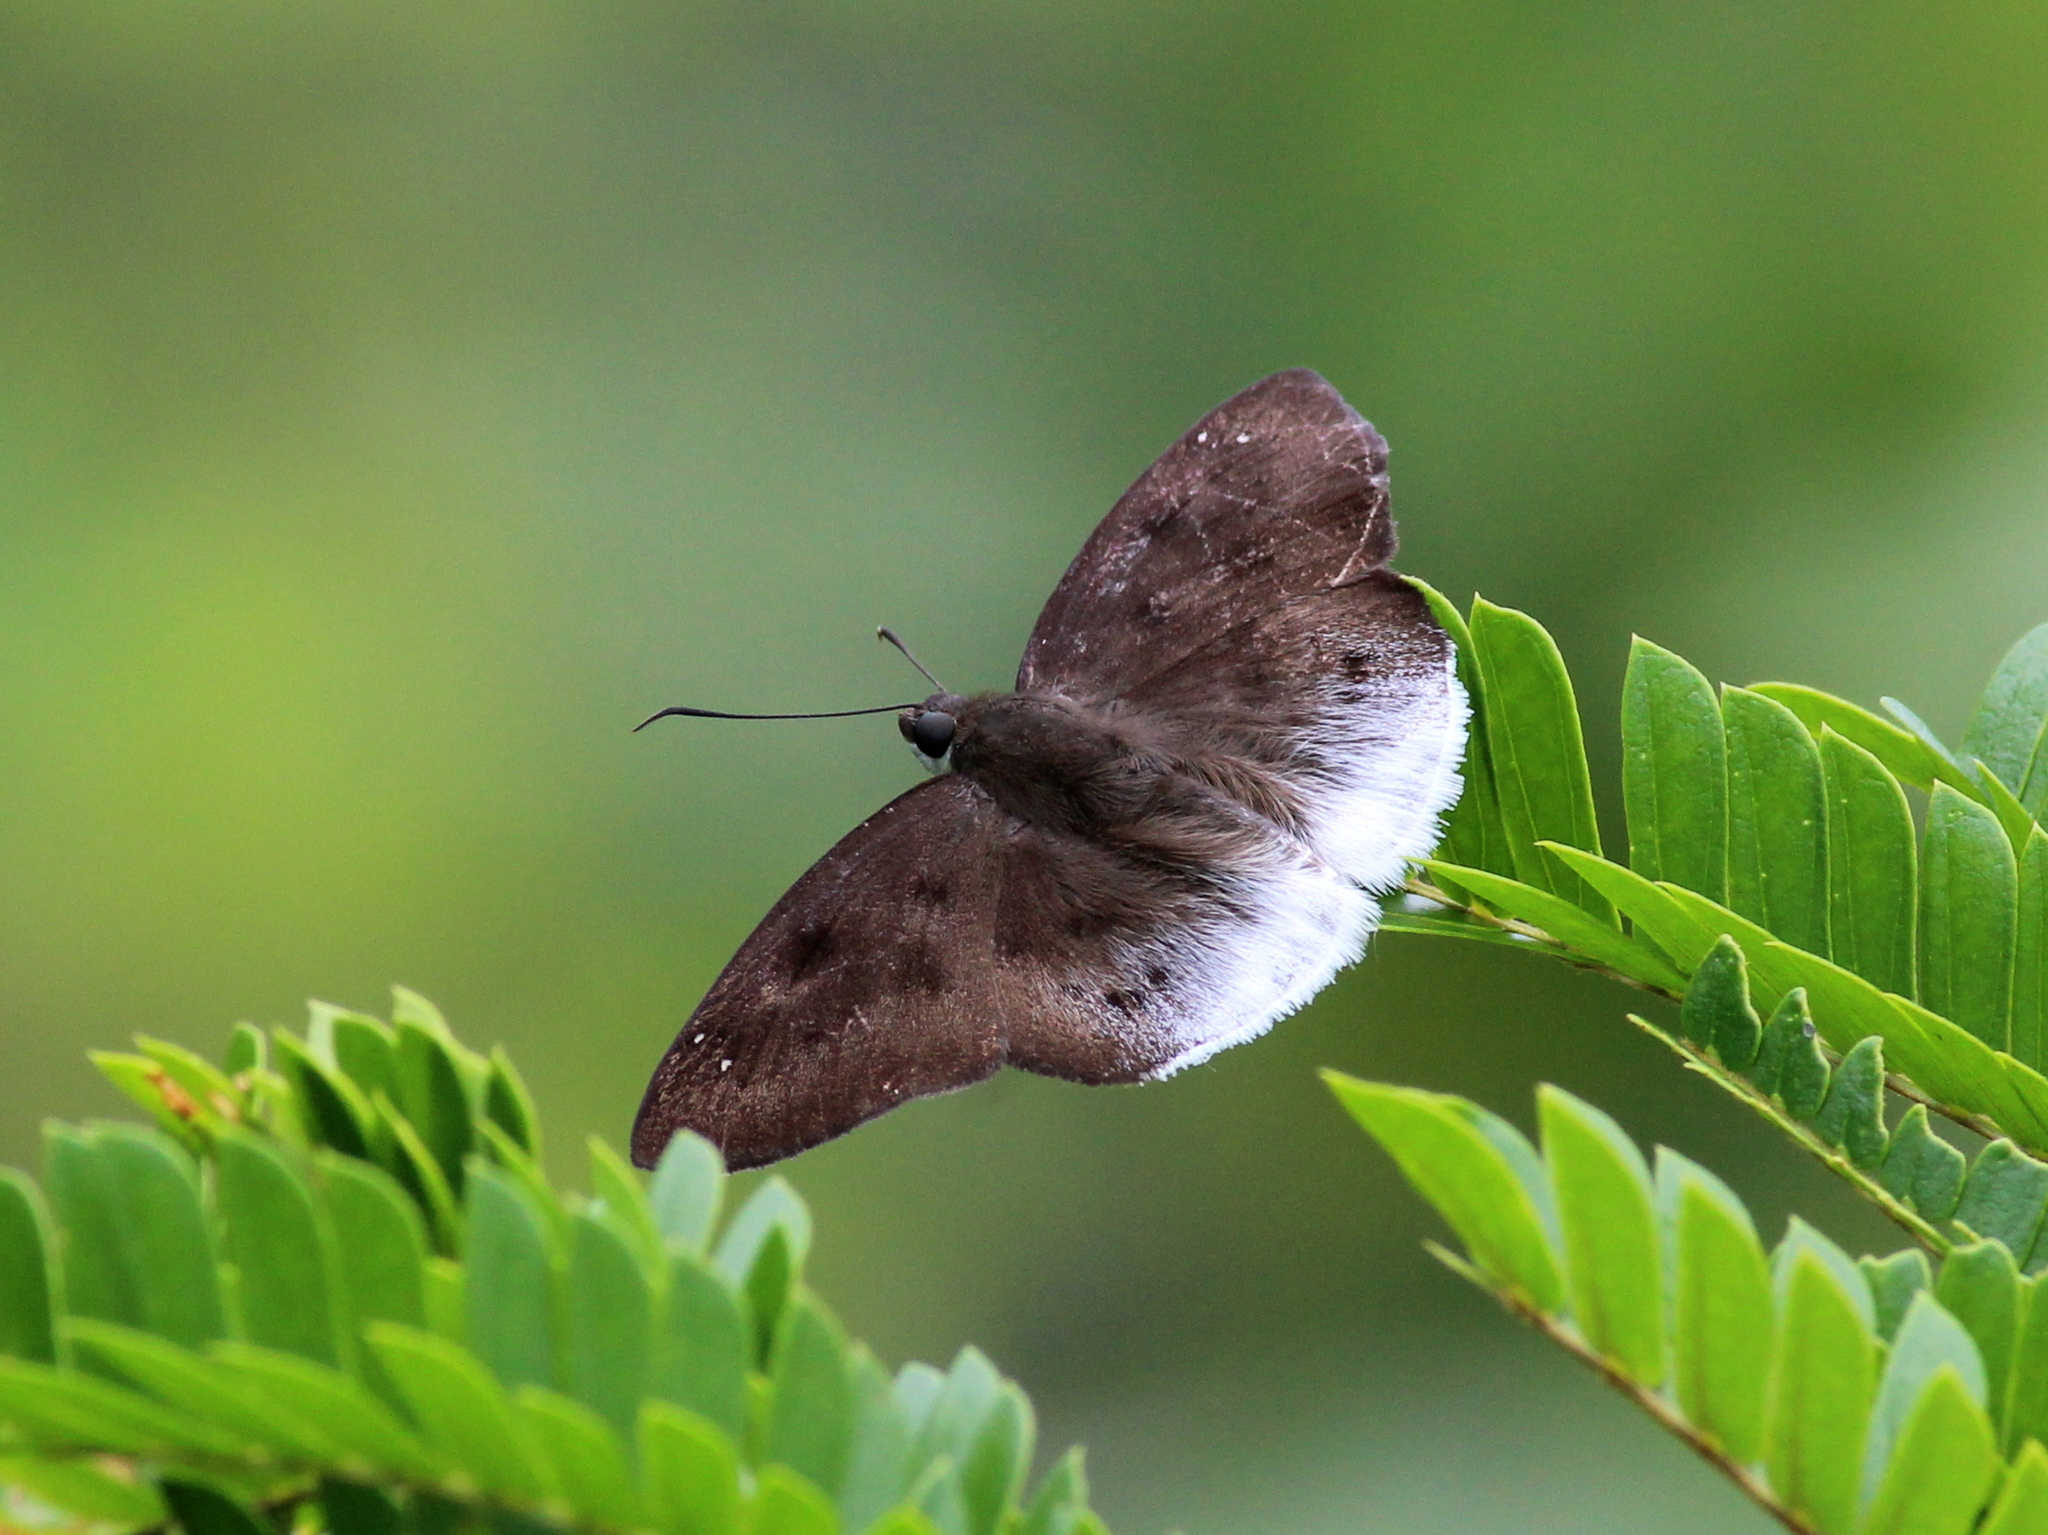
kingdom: Animalia
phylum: Arthropoda
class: Insecta
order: Lepidoptera
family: Hesperiidae
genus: Tagiades
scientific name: Tagiades gana
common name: Suffused snow flat
